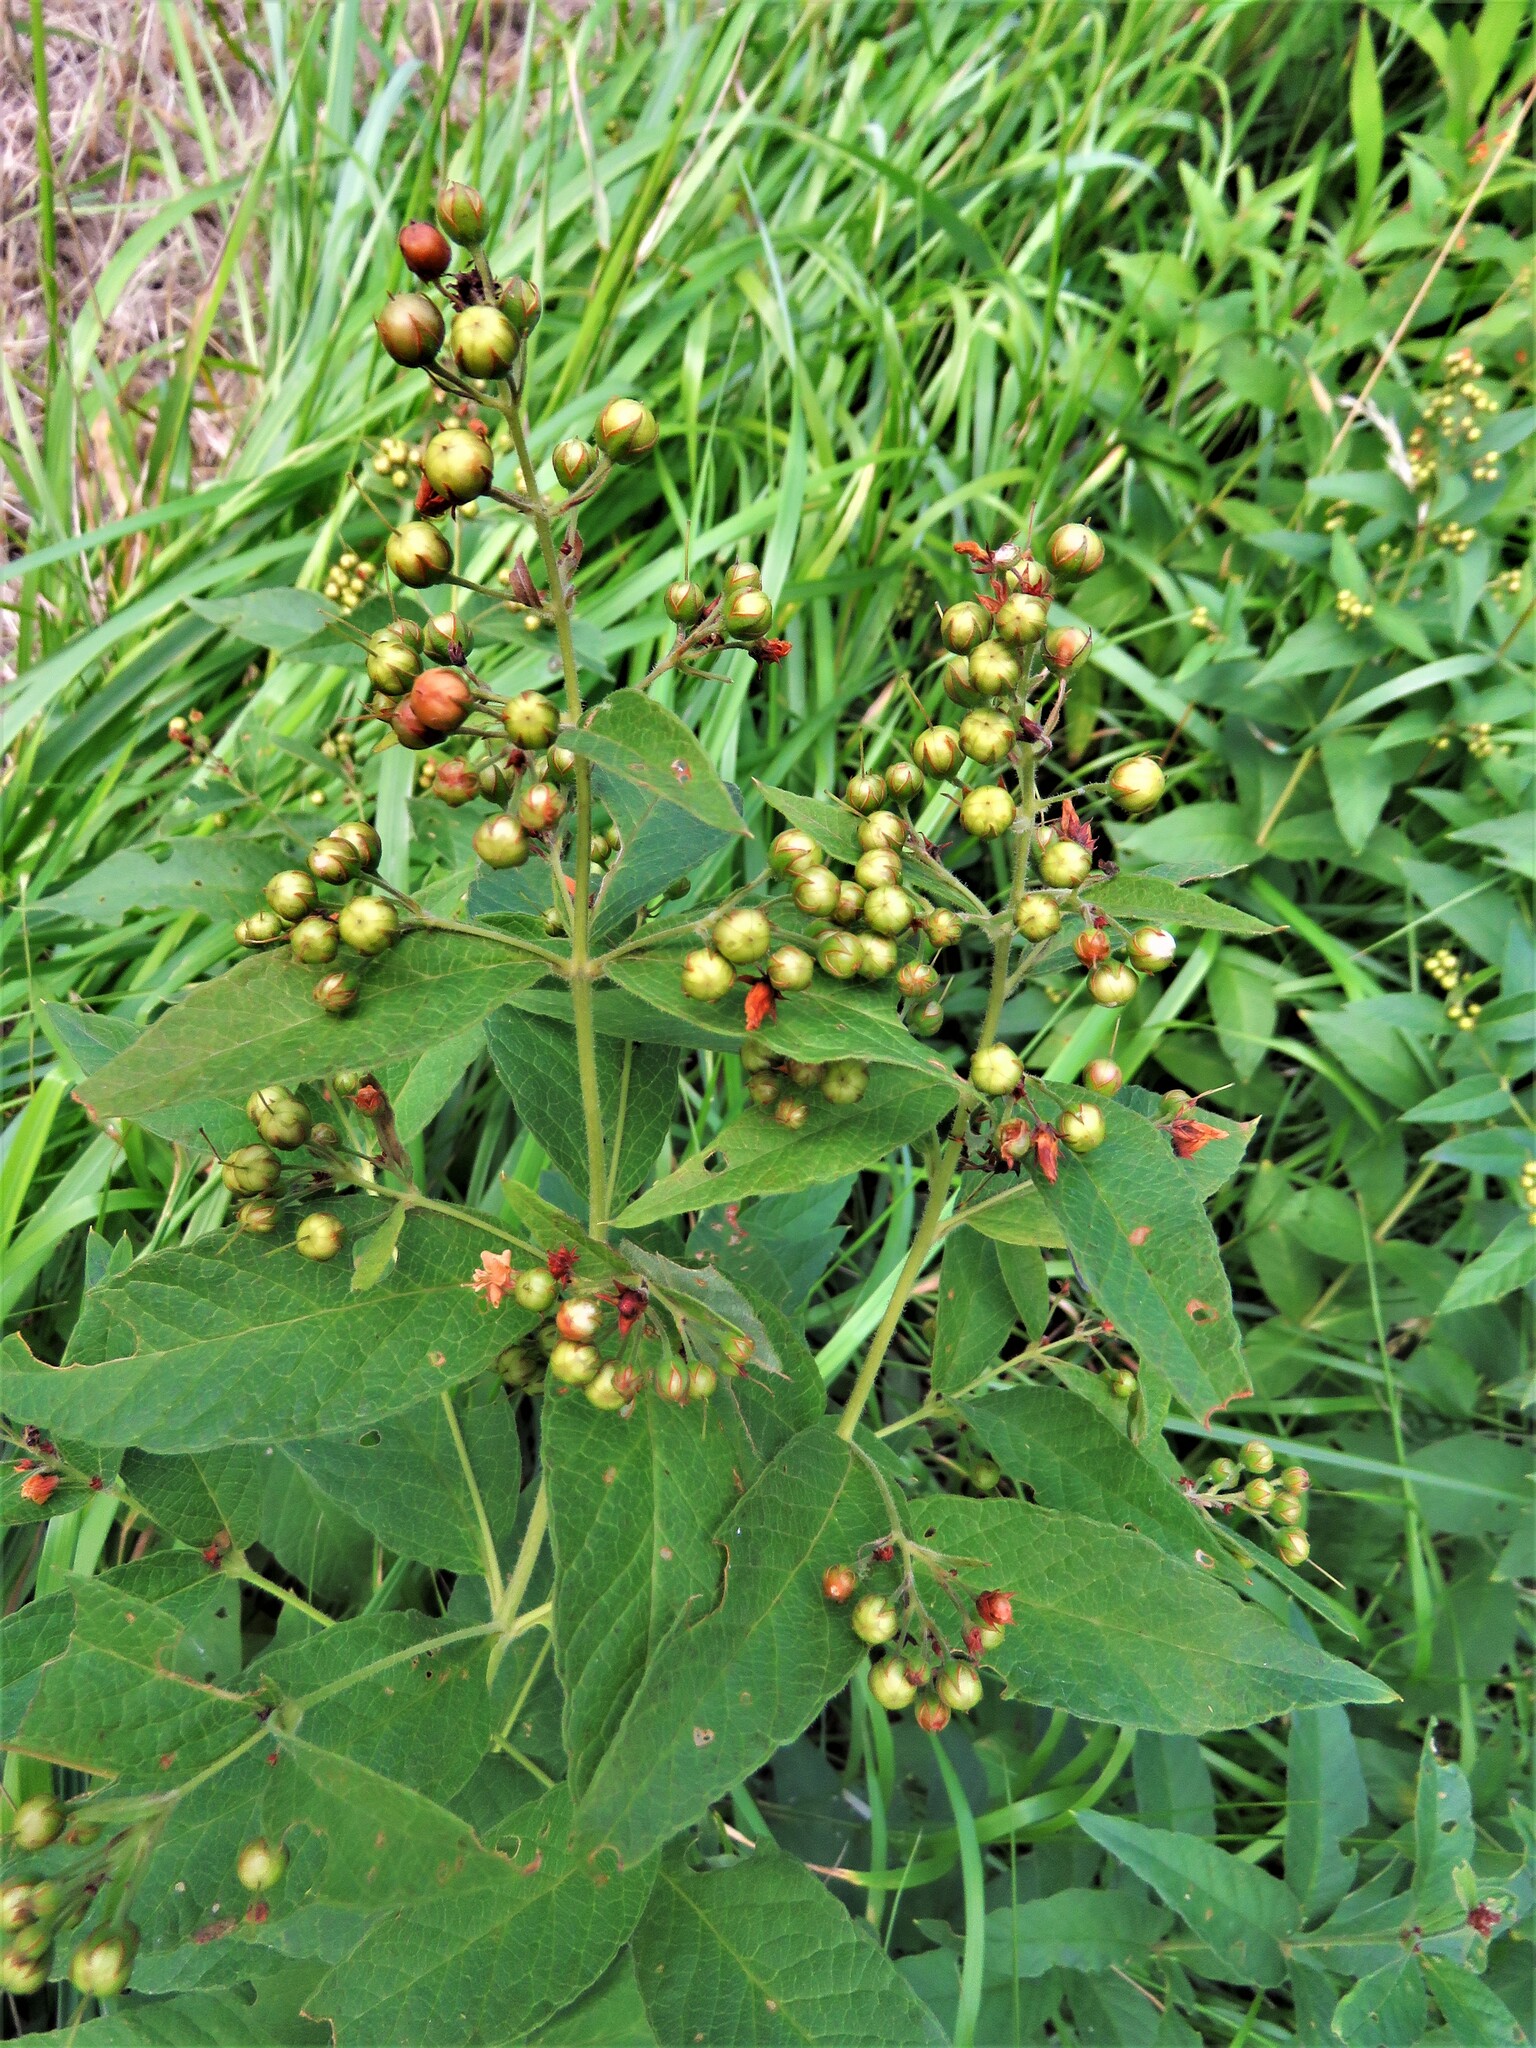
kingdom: Plantae
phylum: Tracheophyta
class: Magnoliopsida
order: Ericales
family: Primulaceae
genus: Lysimachia
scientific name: Lysimachia vulgaris
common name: Yellow loosestrife
